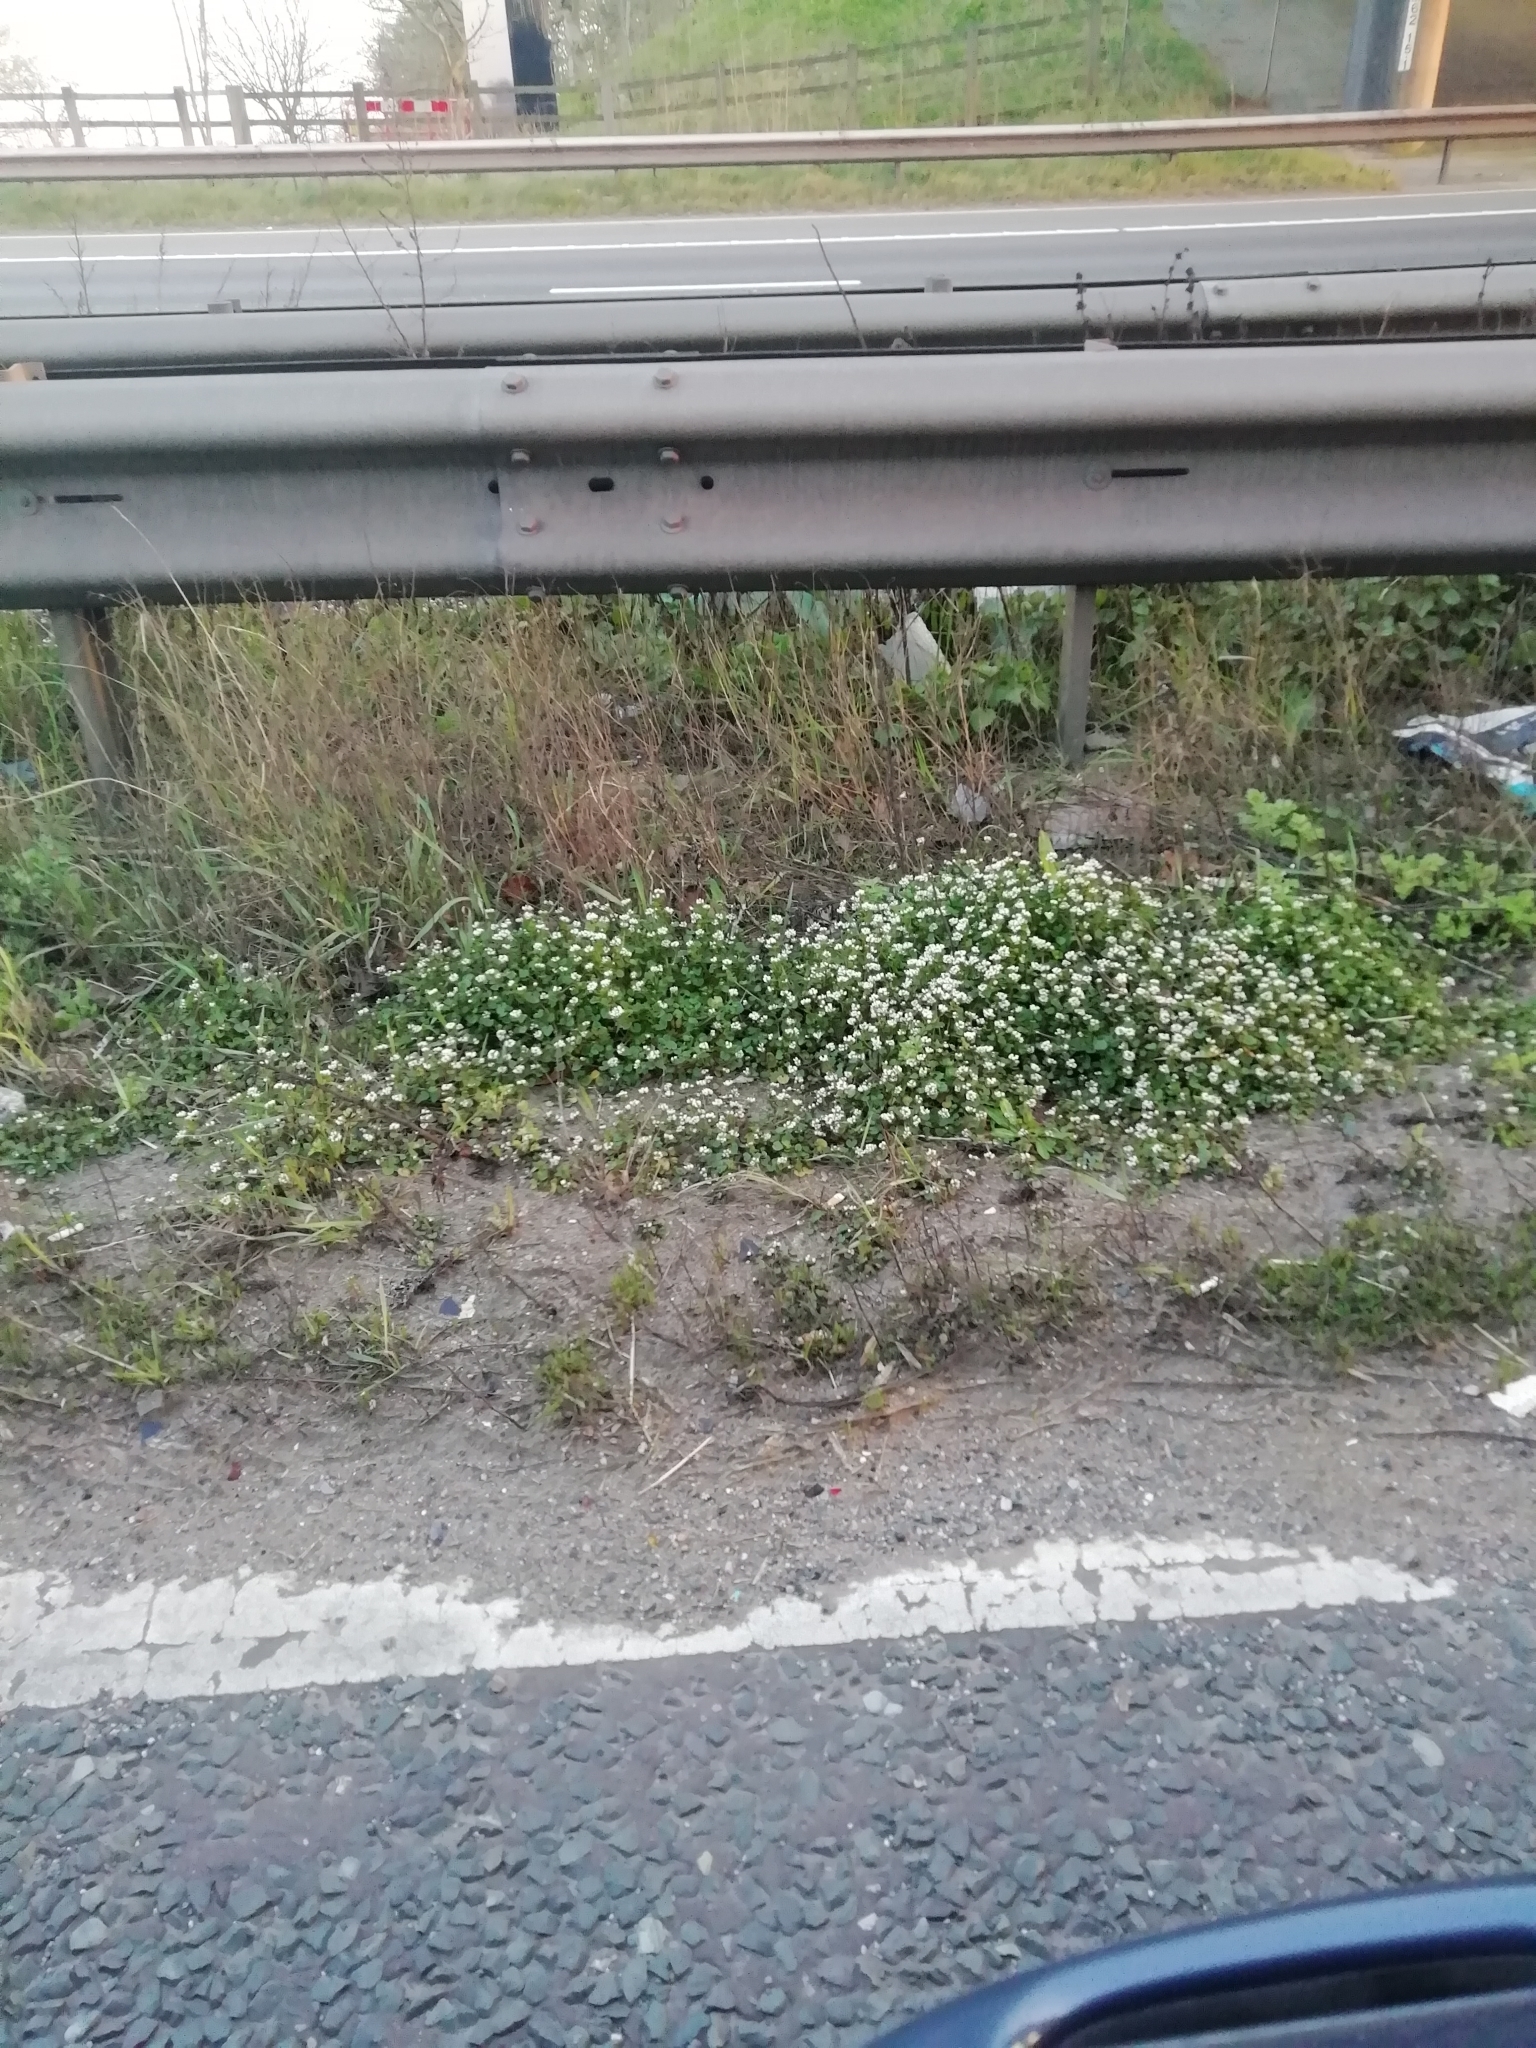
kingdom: Plantae
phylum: Tracheophyta
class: Magnoliopsida
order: Brassicales
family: Brassicaceae
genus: Cochlearia
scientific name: Cochlearia danica
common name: Early scurvygrass
